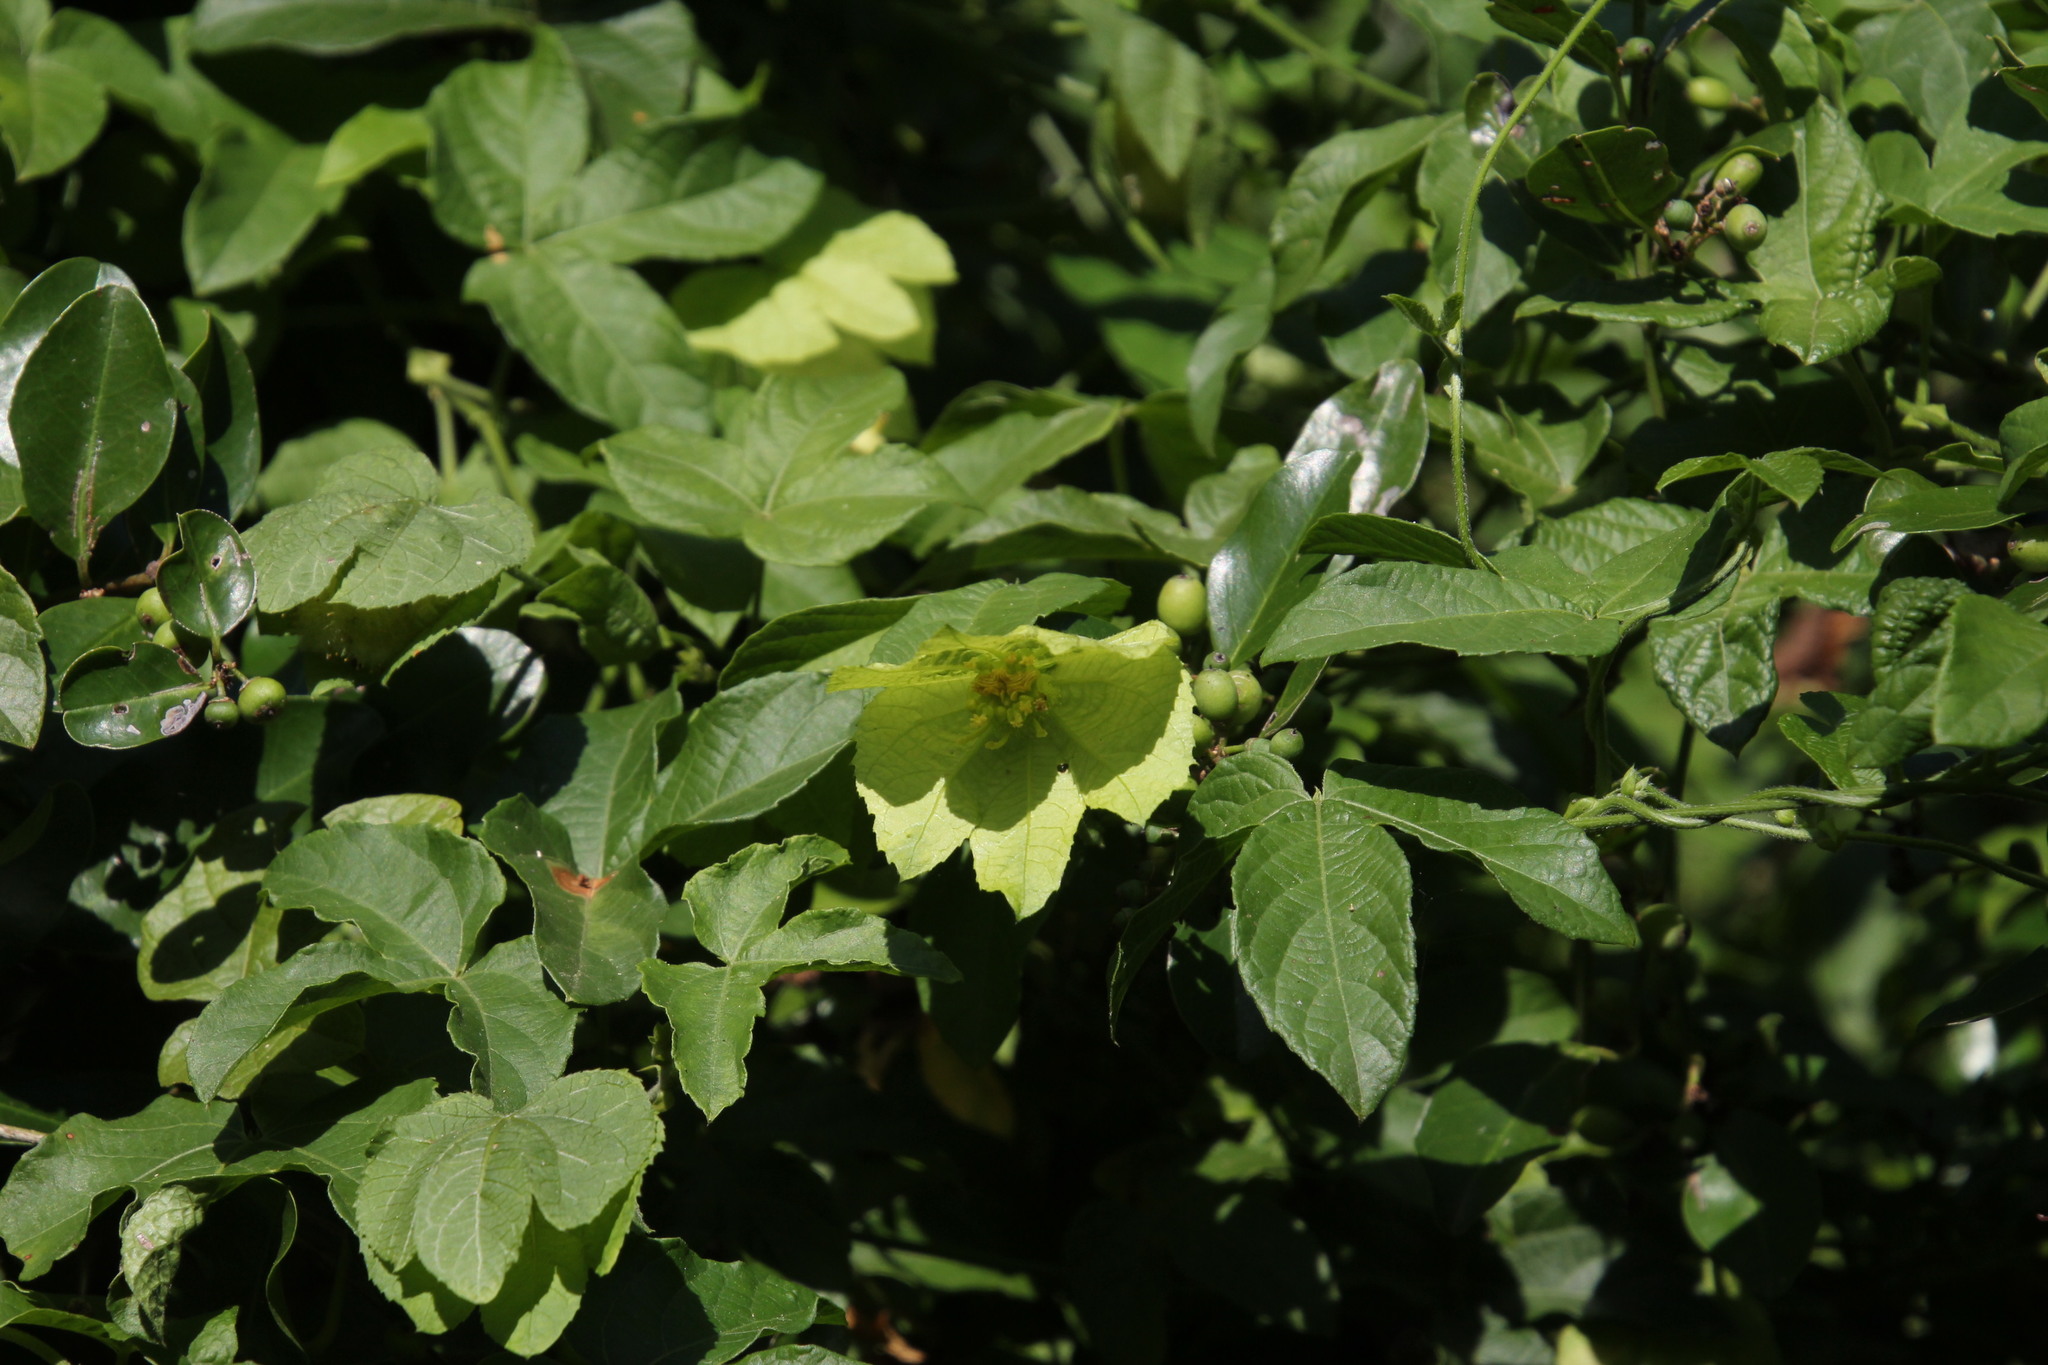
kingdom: Plantae
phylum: Tracheophyta
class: Magnoliopsida
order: Malpighiales
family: Euphorbiaceae
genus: Dalechampia
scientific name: Dalechampia capensis
